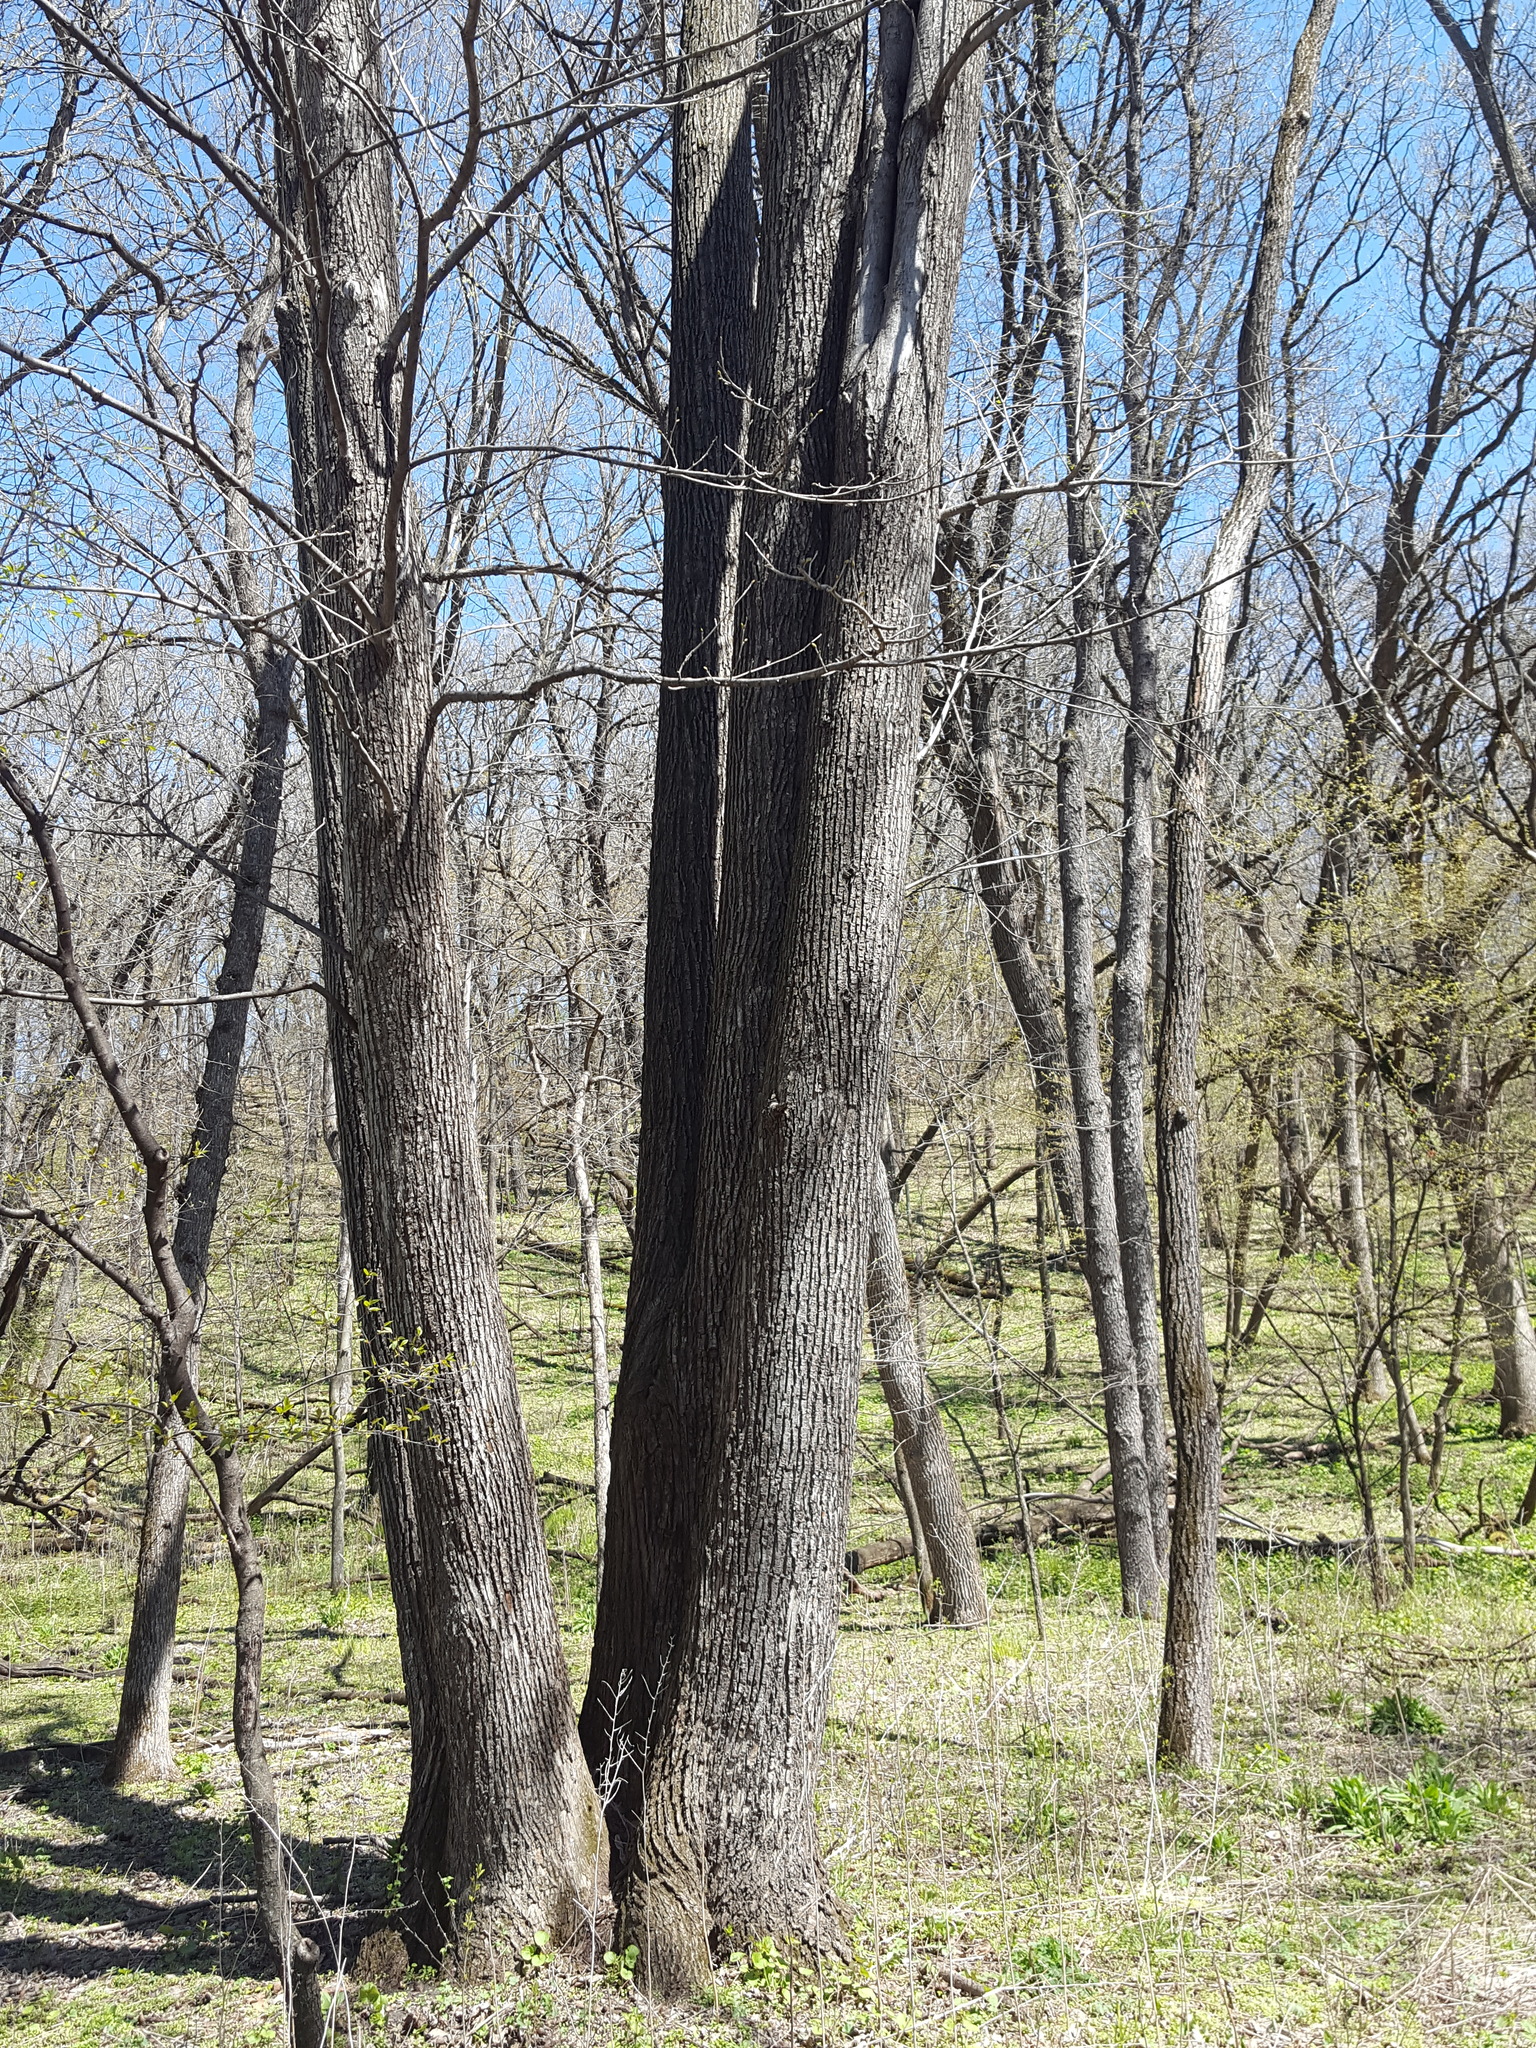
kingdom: Plantae
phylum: Tracheophyta
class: Magnoliopsida
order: Malvales
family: Malvaceae
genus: Tilia
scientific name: Tilia americana
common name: Basswood
